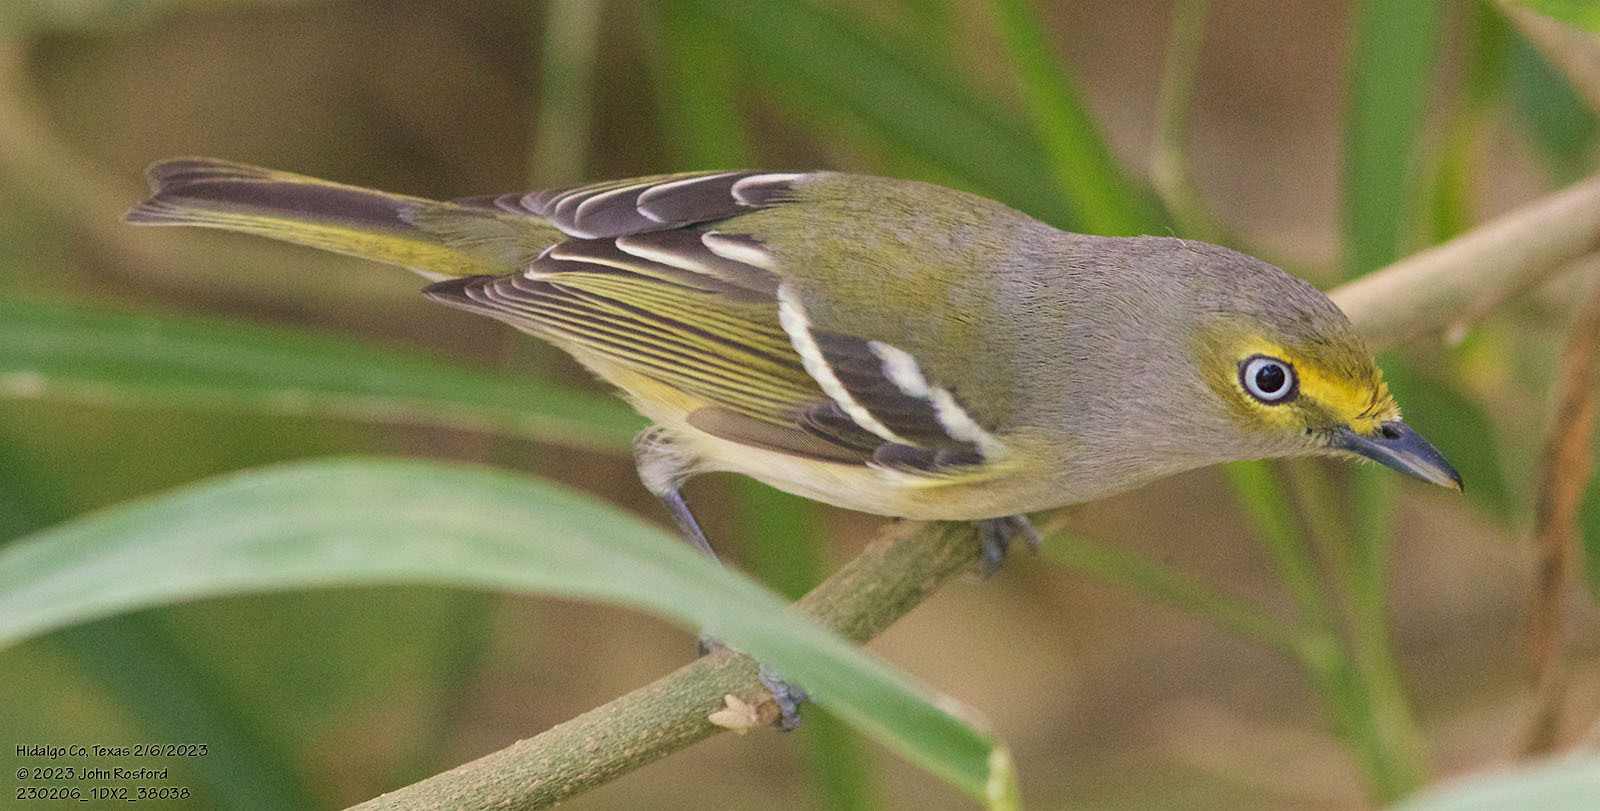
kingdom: Animalia
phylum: Chordata
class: Aves
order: Passeriformes
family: Vireonidae
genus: Vireo
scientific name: Vireo griseus
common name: White-eyed vireo
